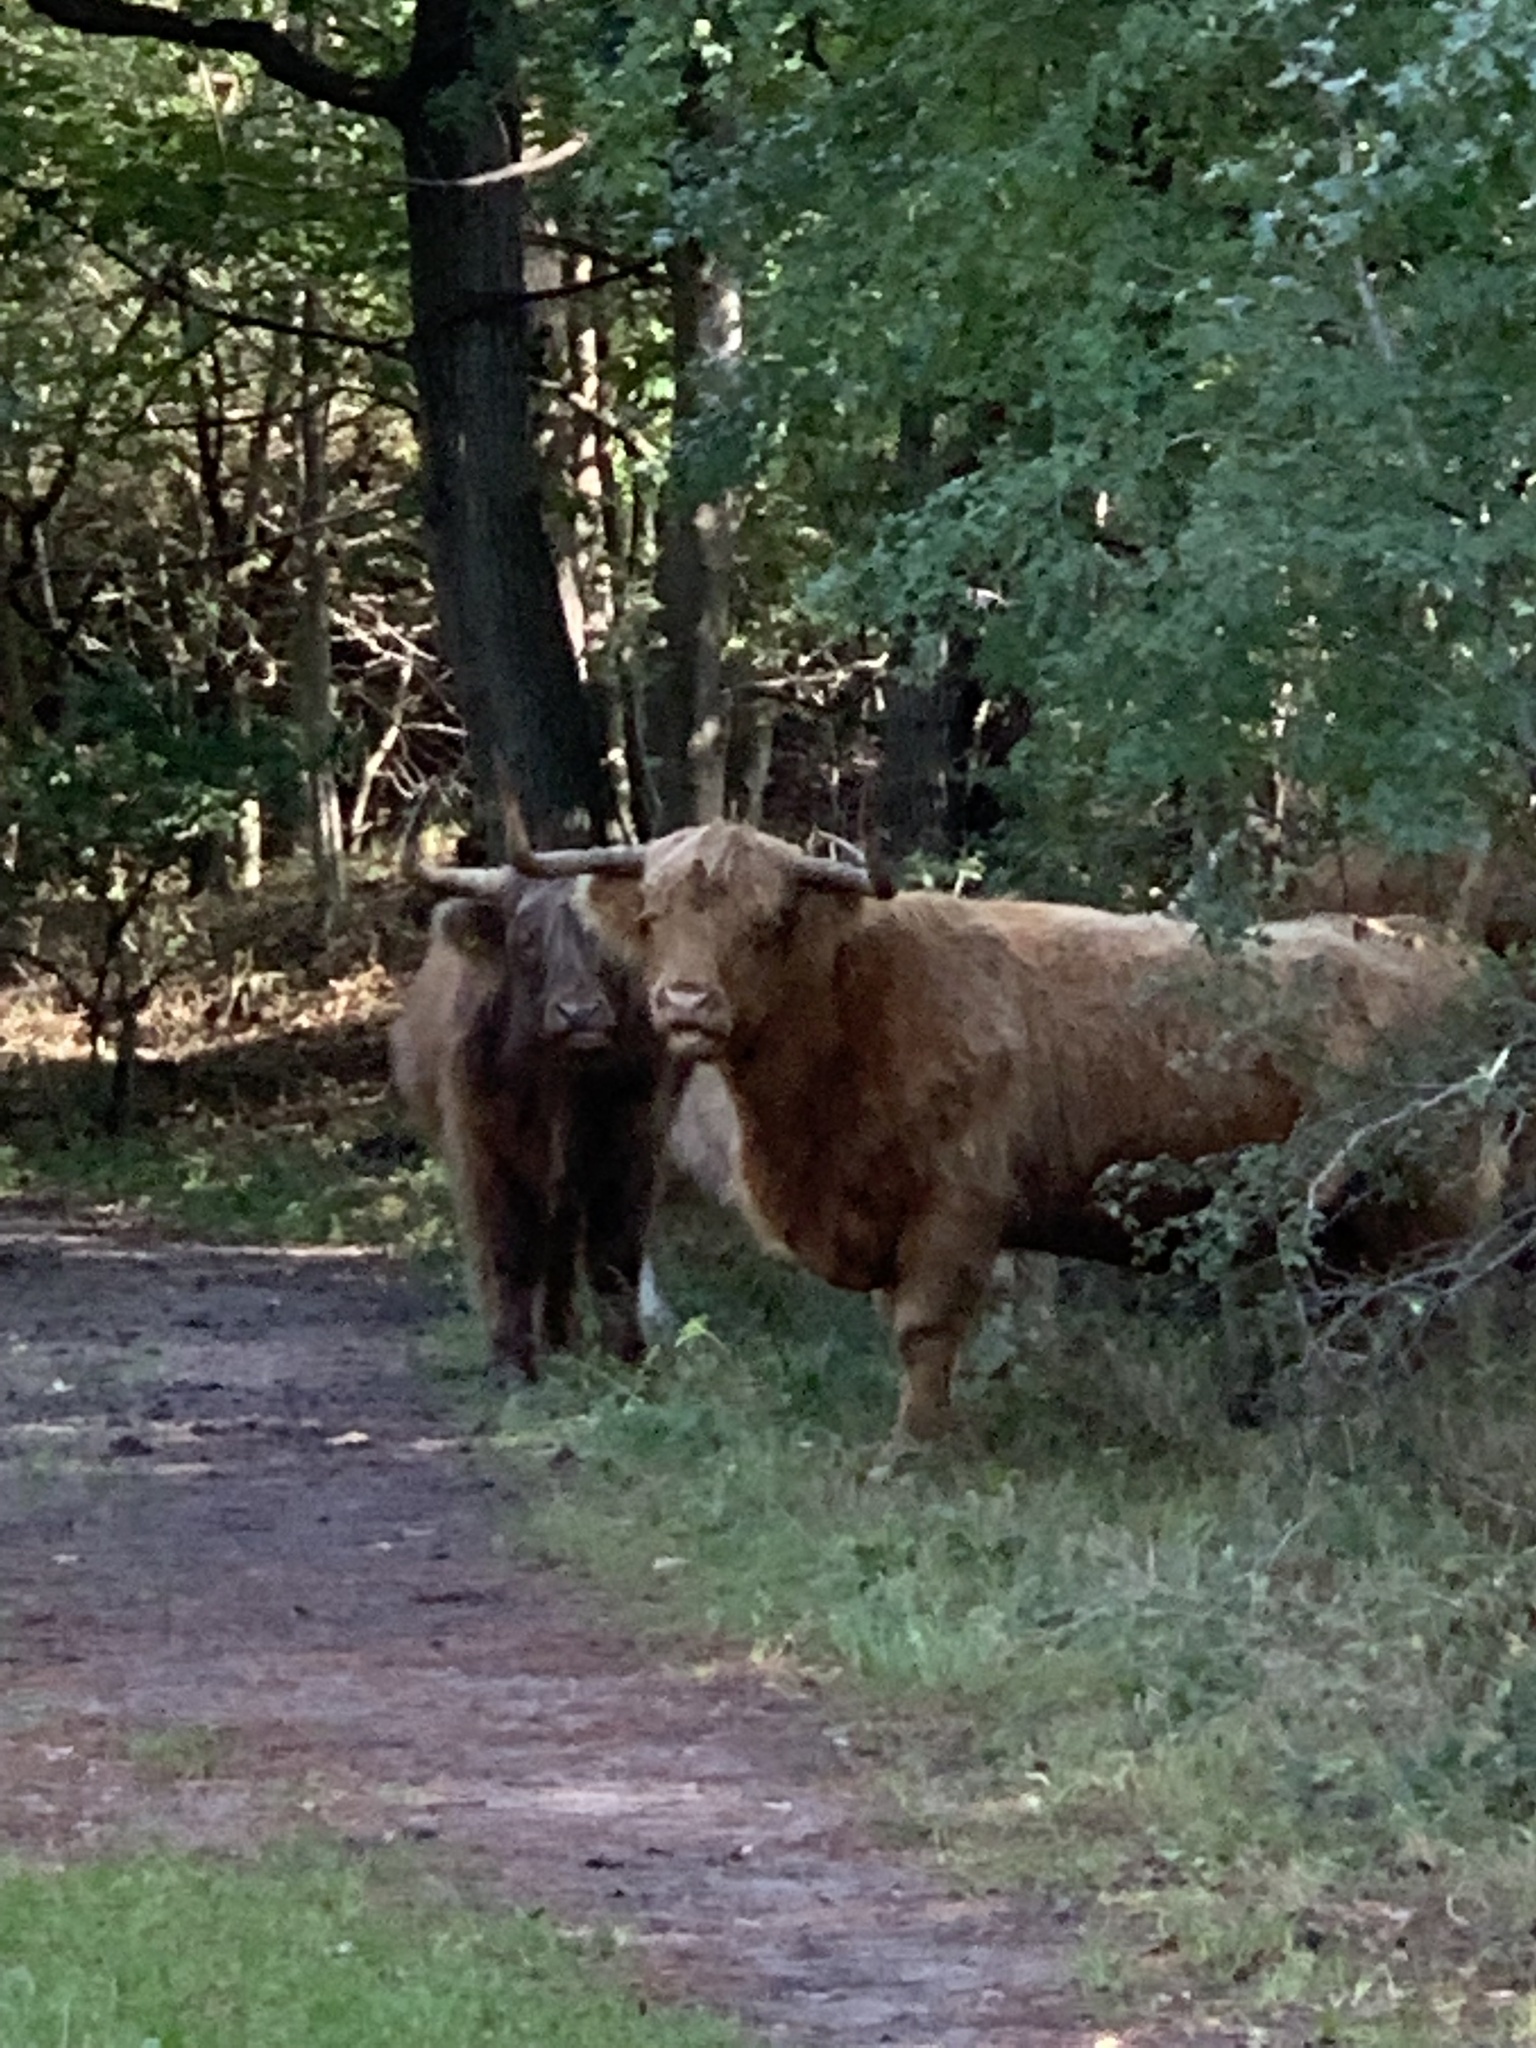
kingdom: Animalia
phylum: Chordata
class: Mammalia
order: Artiodactyla
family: Bovidae
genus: Bos
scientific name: Bos taurus
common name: Domesticated cattle
